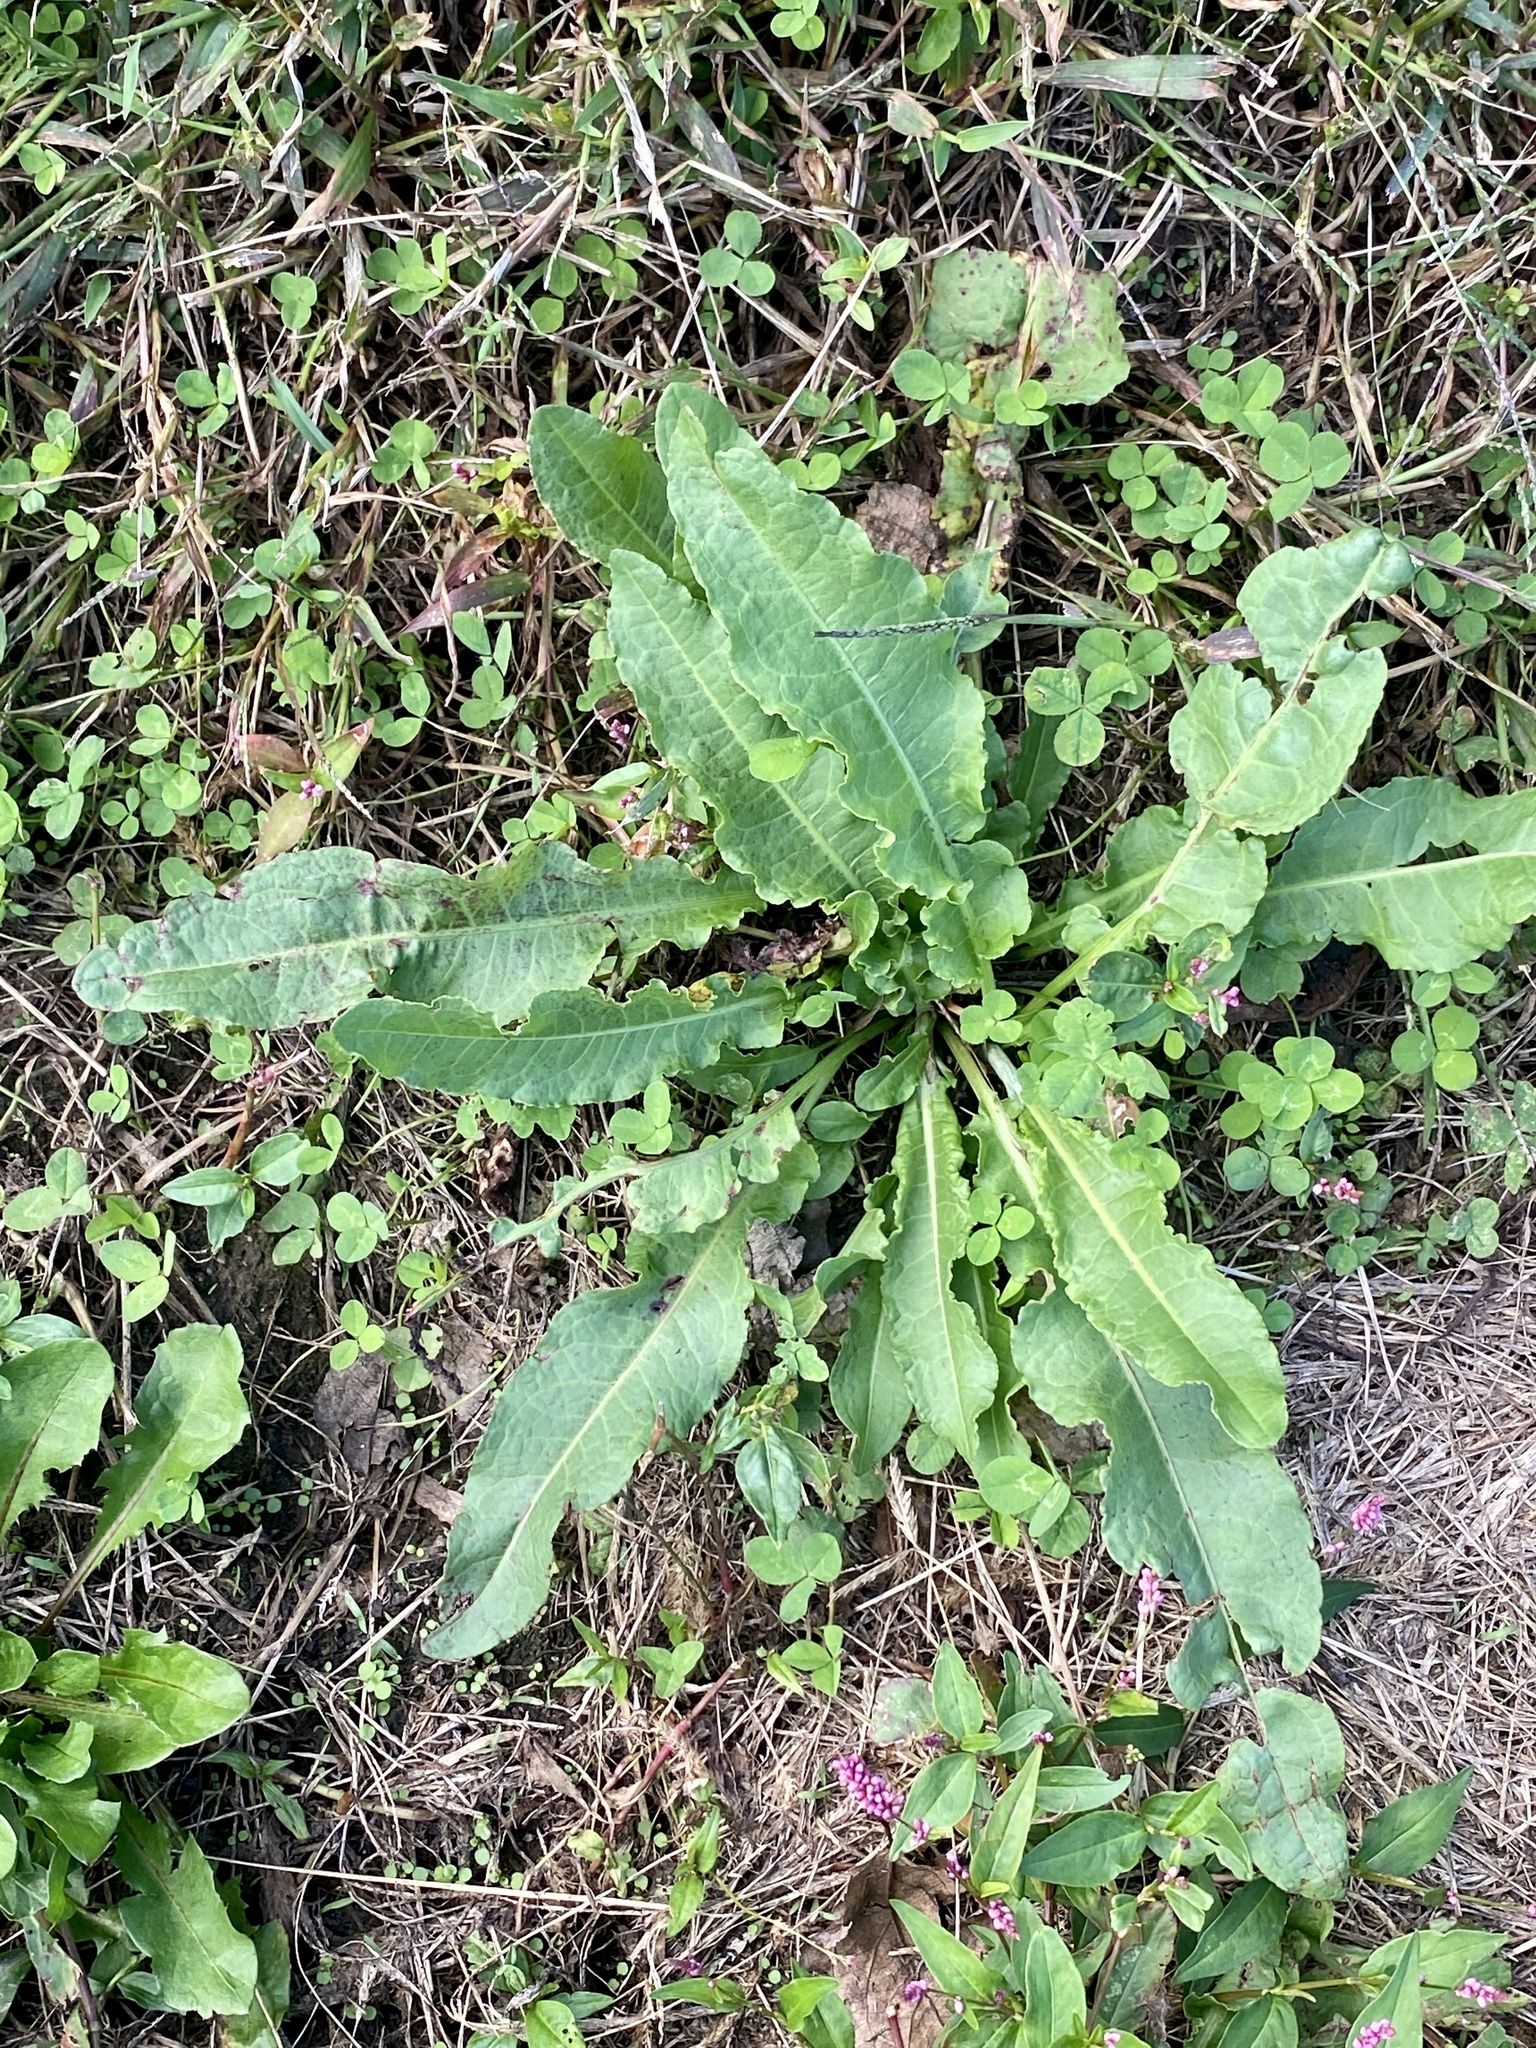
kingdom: Plantae
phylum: Tracheophyta
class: Magnoliopsida
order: Caryophyllales
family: Polygonaceae
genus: Rumex
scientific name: Rumex crispus
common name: Curled dock
